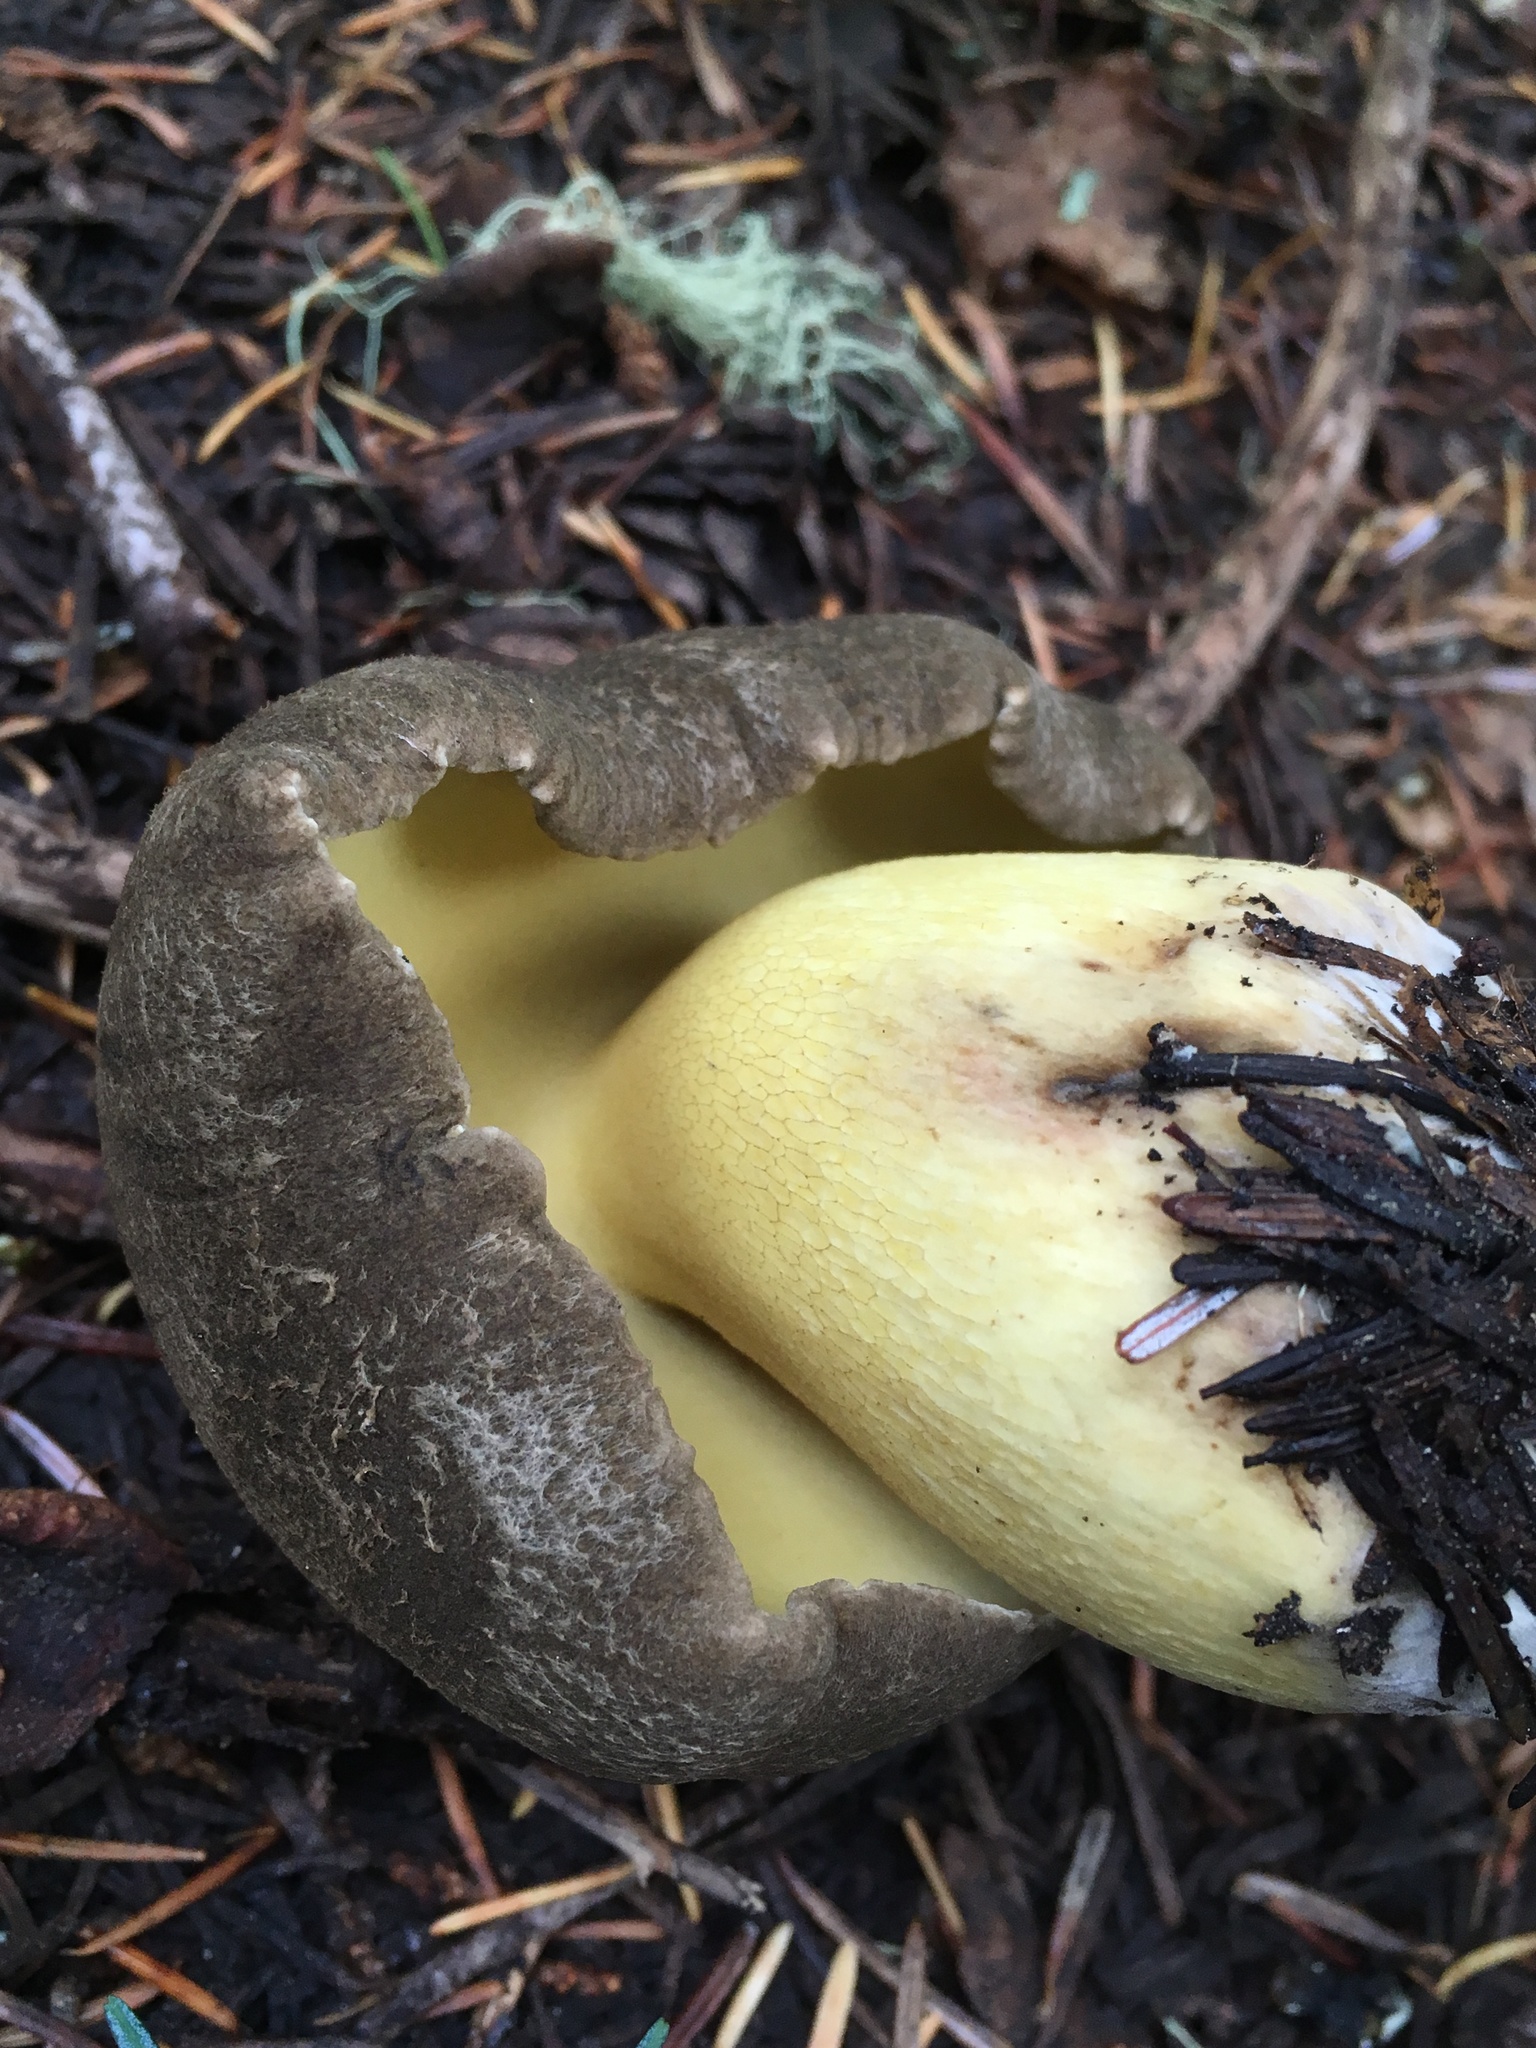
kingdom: Fungi
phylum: Basidiomycota
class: Agaricomycetes
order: Boletales
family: Boletaceae
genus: Caloboletus
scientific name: Caloboletus conifericola
